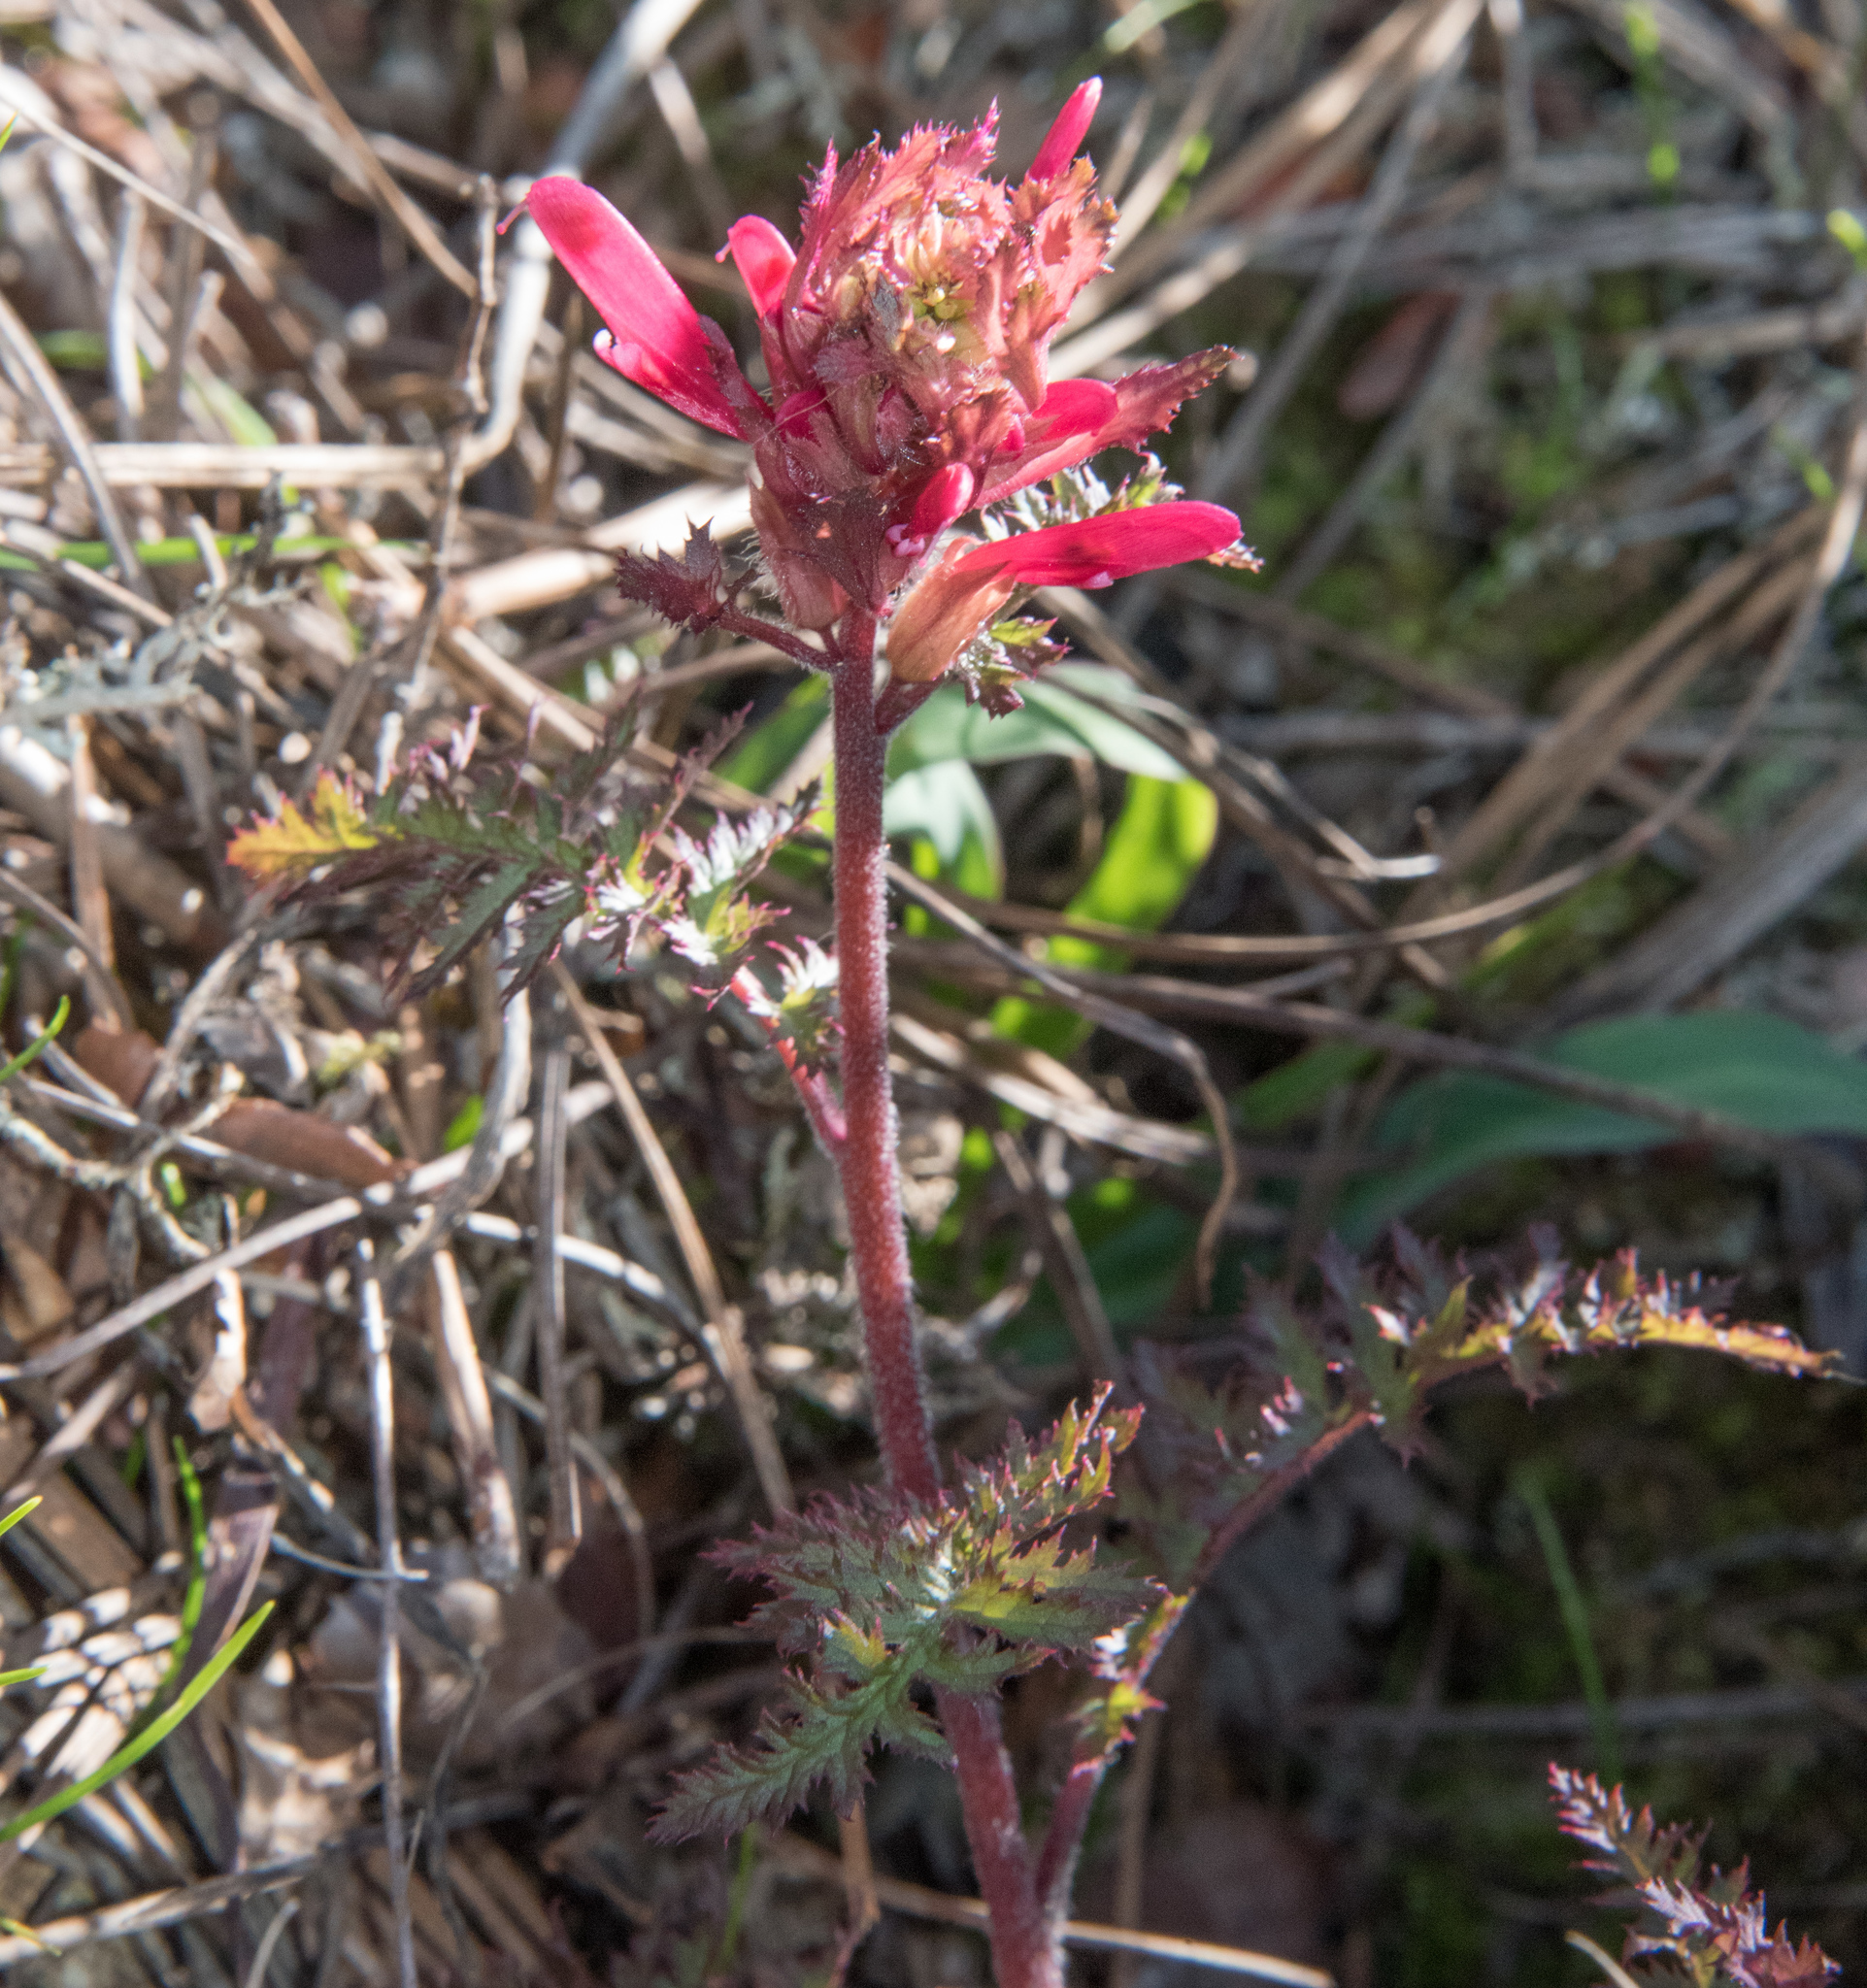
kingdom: Plantae
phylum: Tracheophyta
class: Magnoliopsida
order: Lamiales
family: Orobanchaceae
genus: Pedicularis
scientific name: Pedicularis densiflora
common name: Indian warrior
